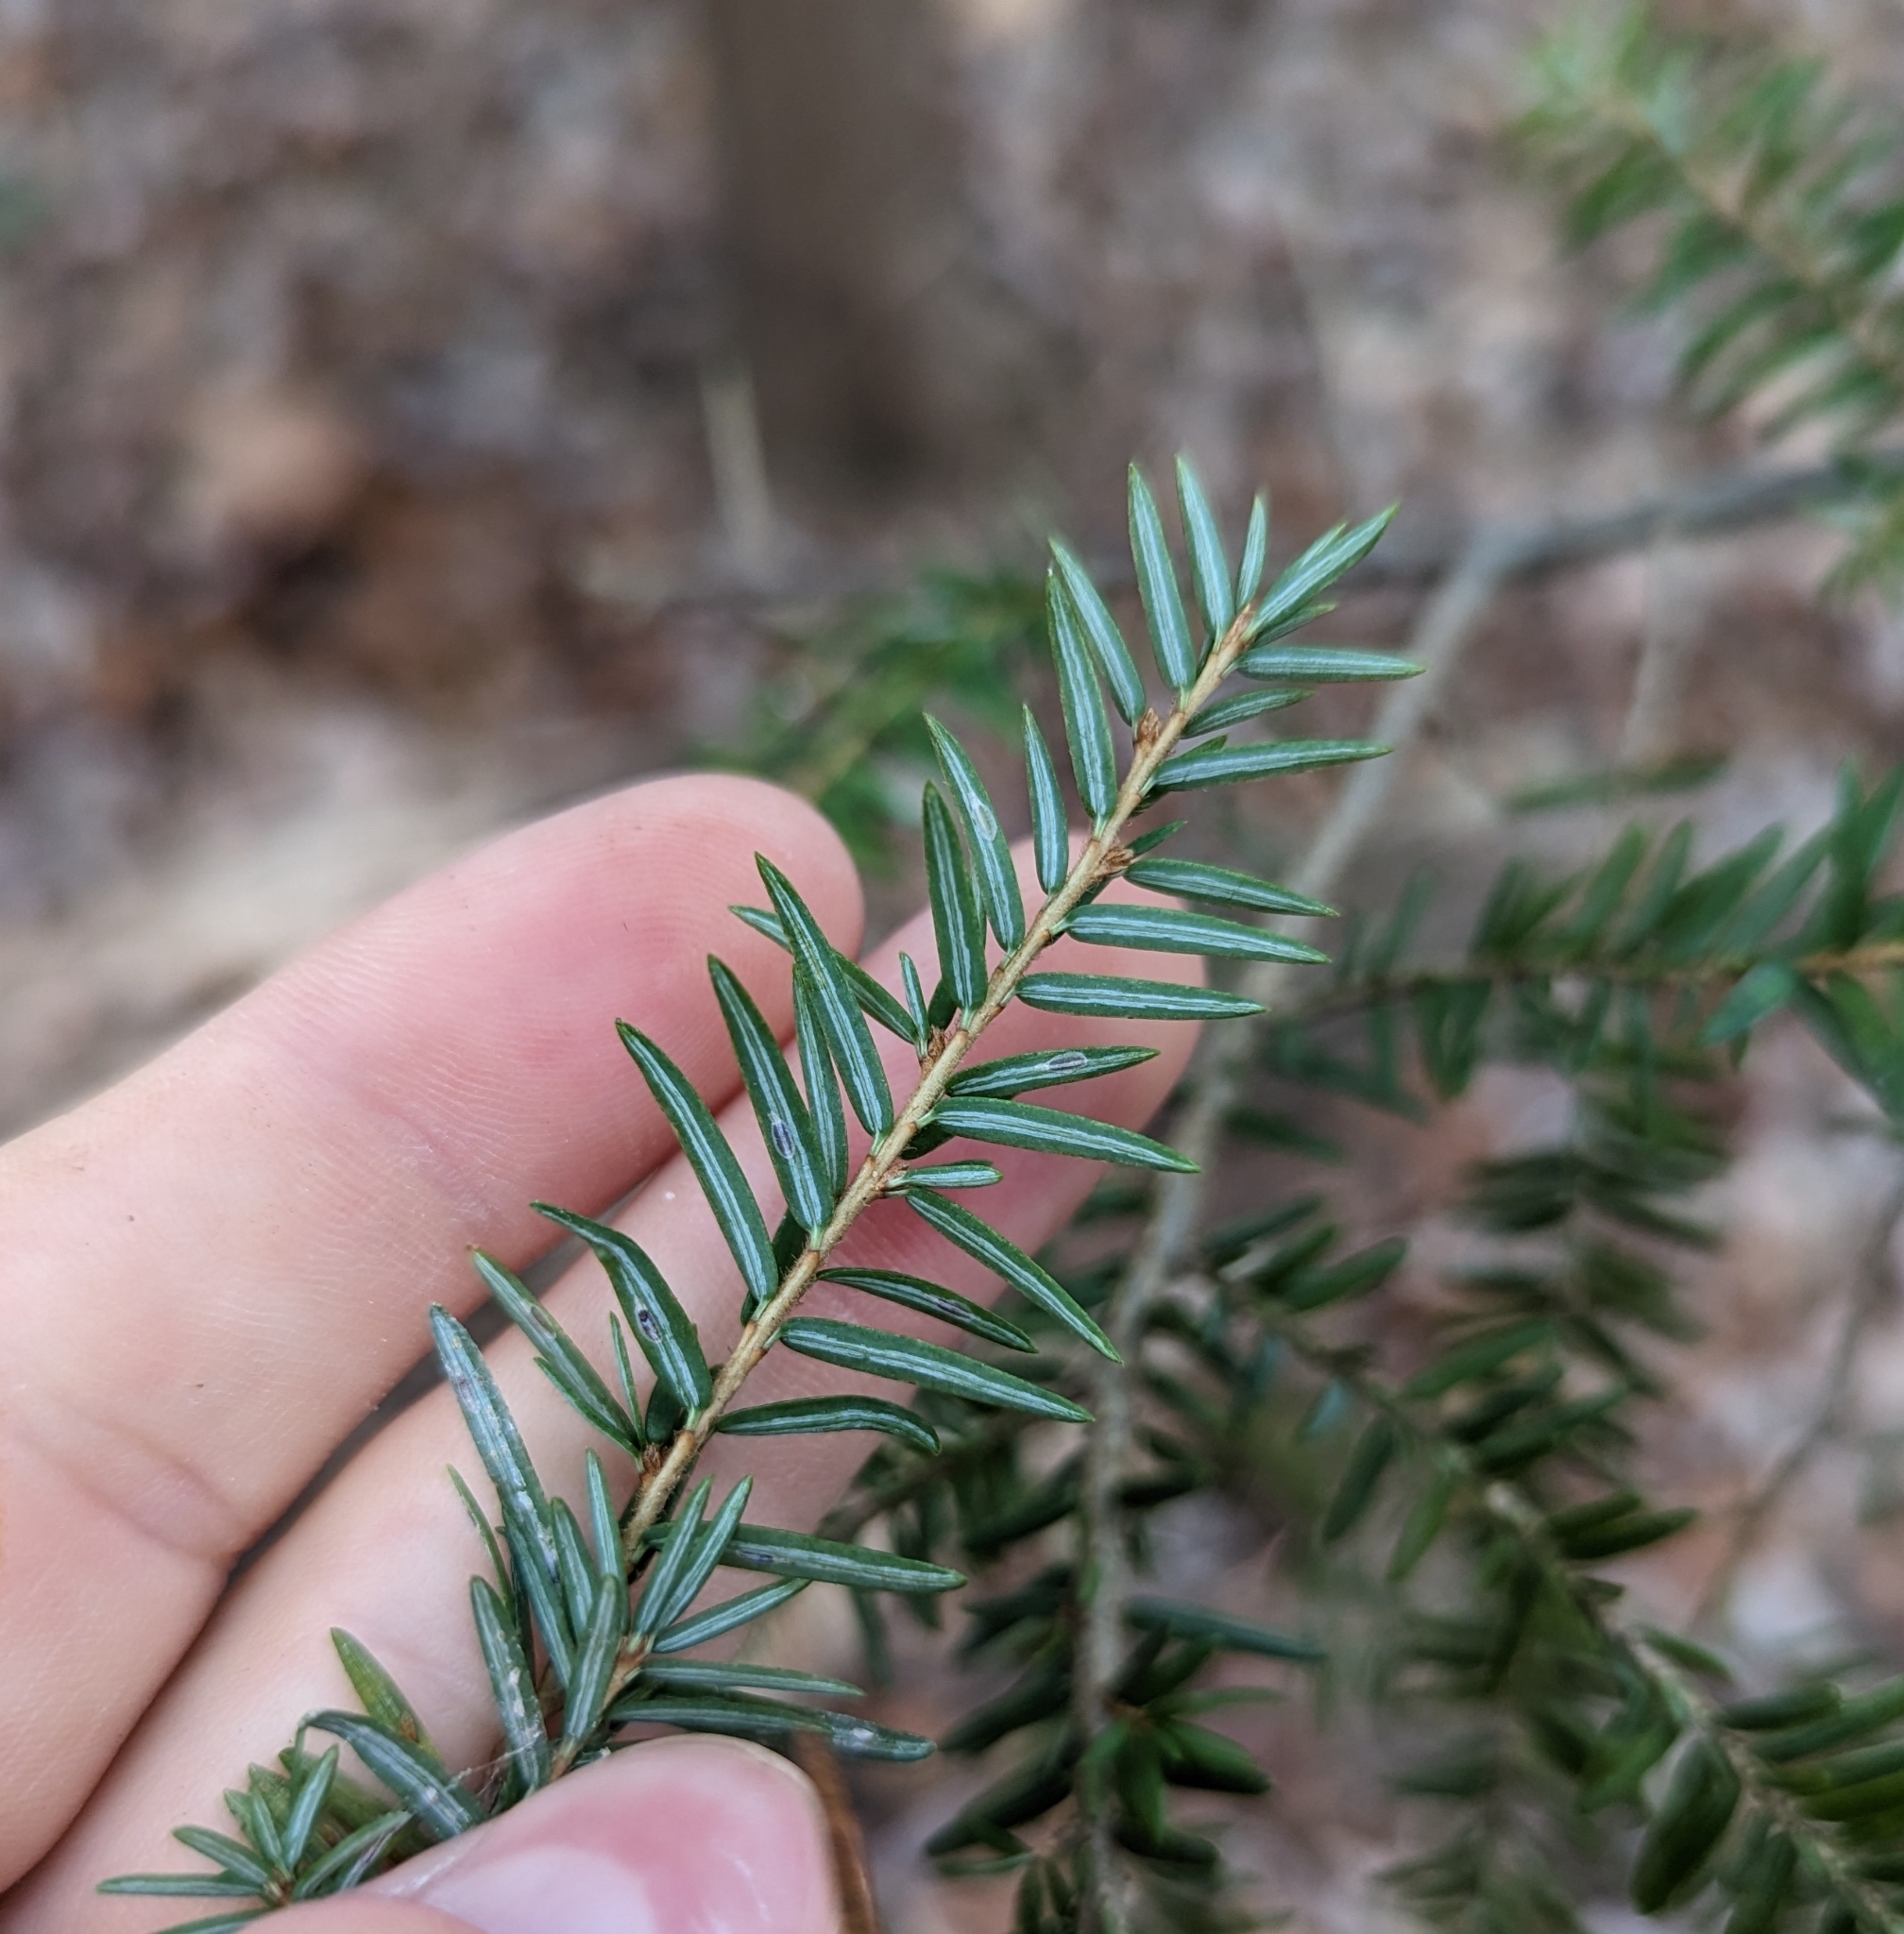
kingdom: Plantae
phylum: Tracheophyta
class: Pinopsida
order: Pinales
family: Pinaceae
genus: Tsuga
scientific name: Tsuga canadensis
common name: Eastern hemlock
